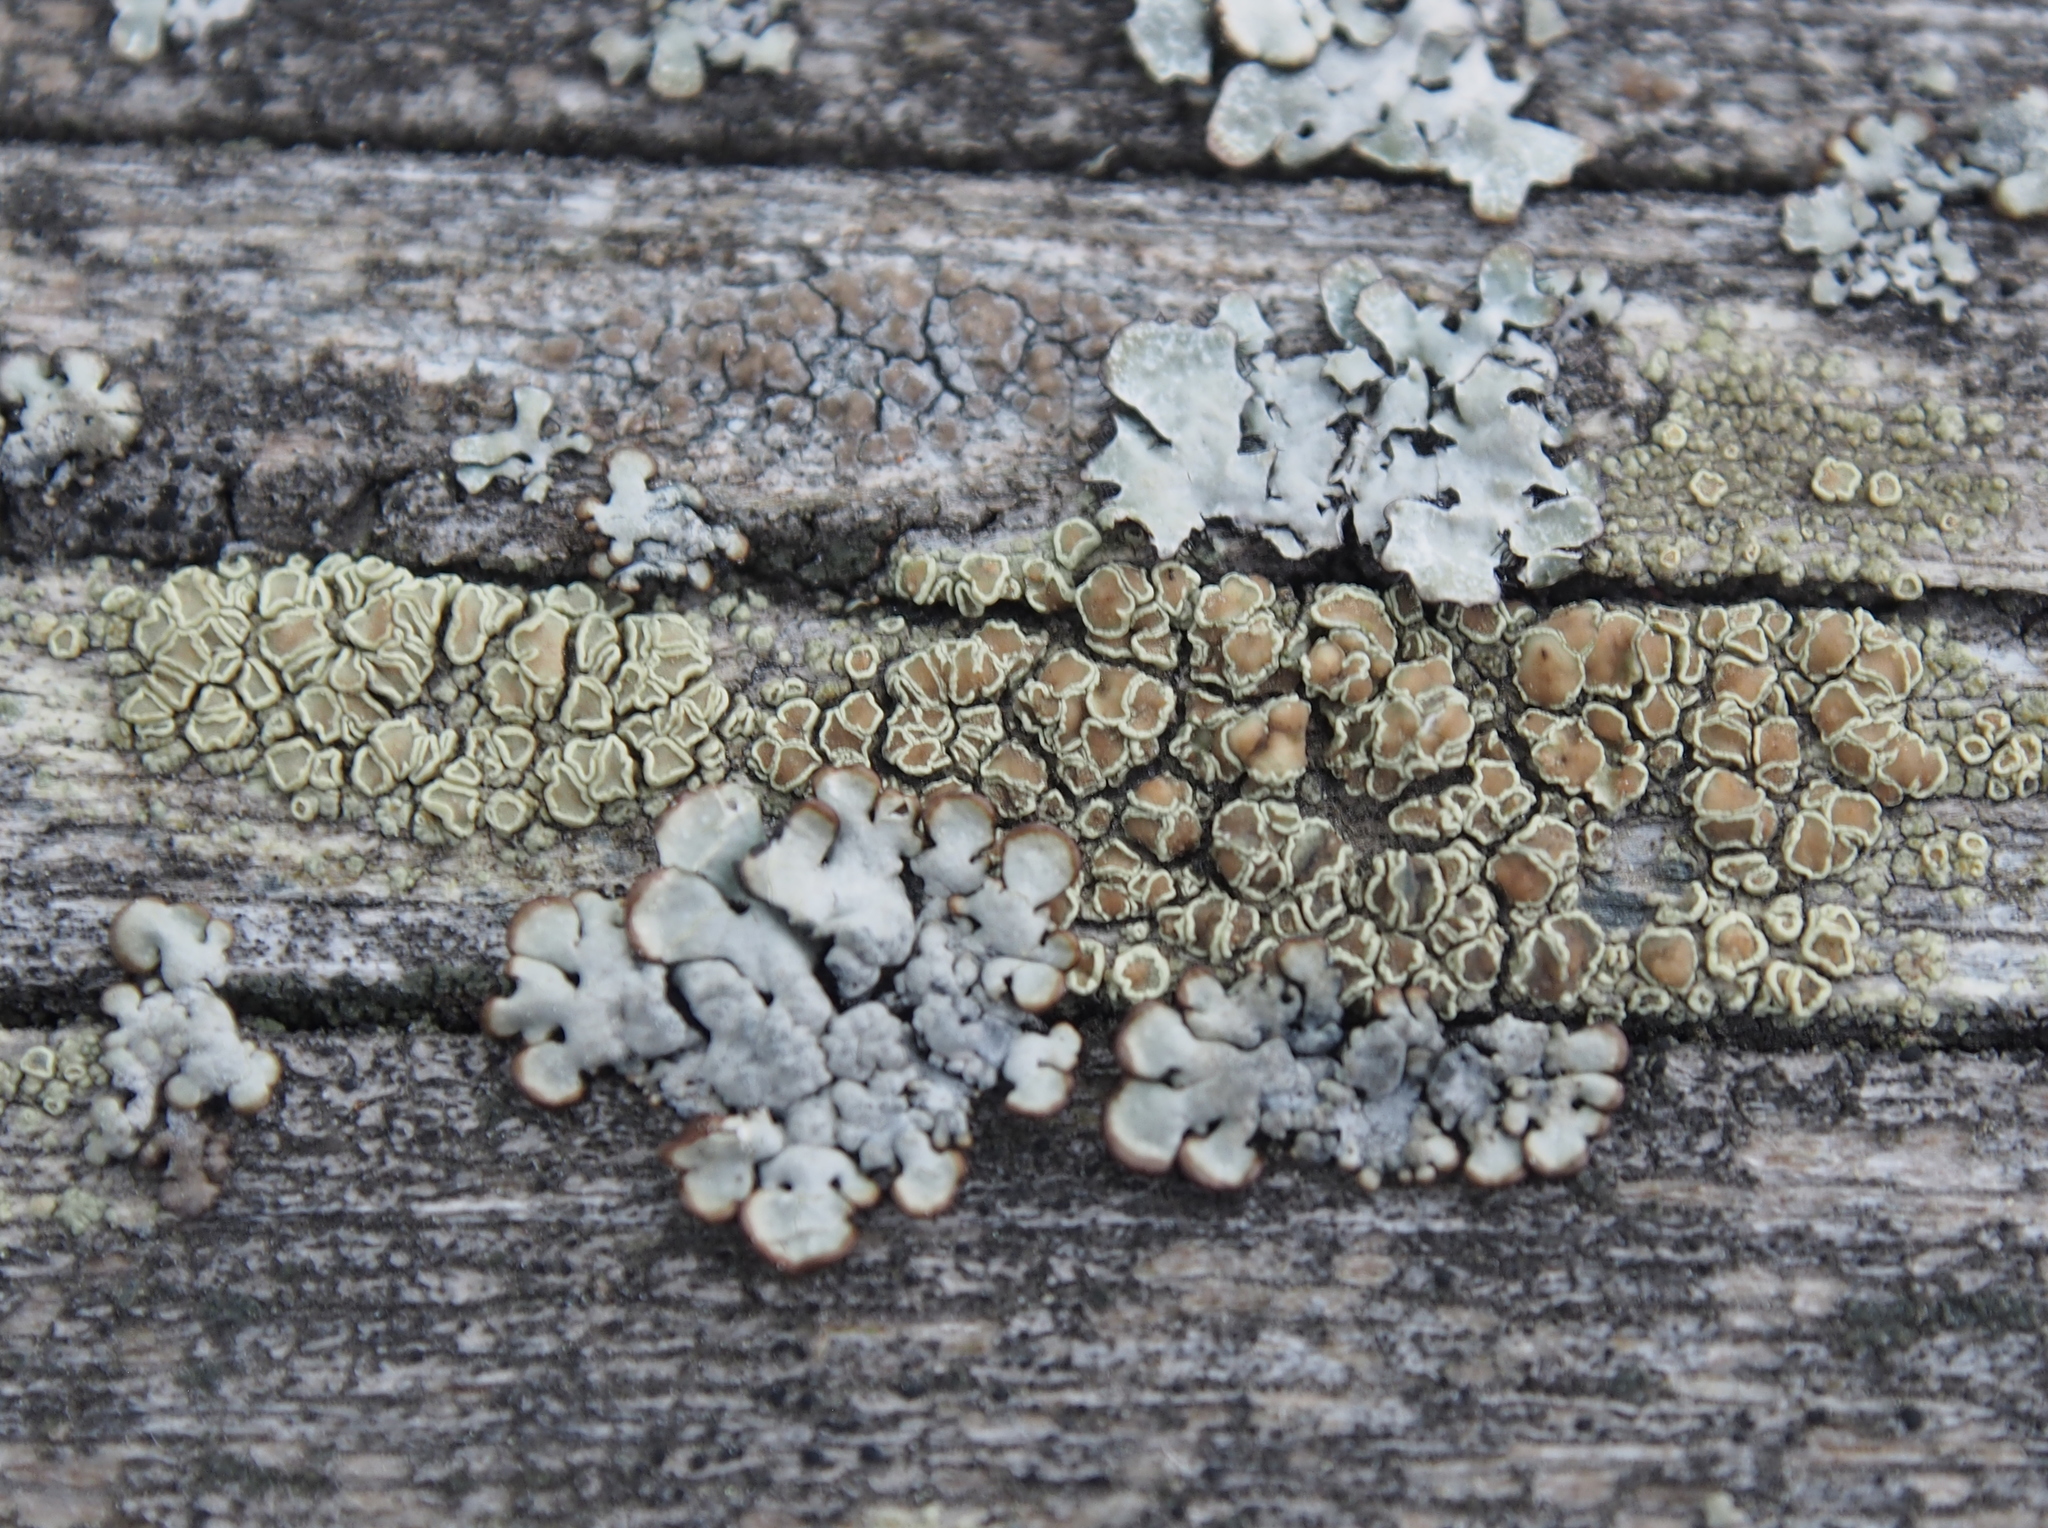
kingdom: Fungi
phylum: Ascomycota
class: Lecanoromycetes
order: Lecanorales
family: Lecanoraceae
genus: Lecanora
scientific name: Lecanora conizaeoides
